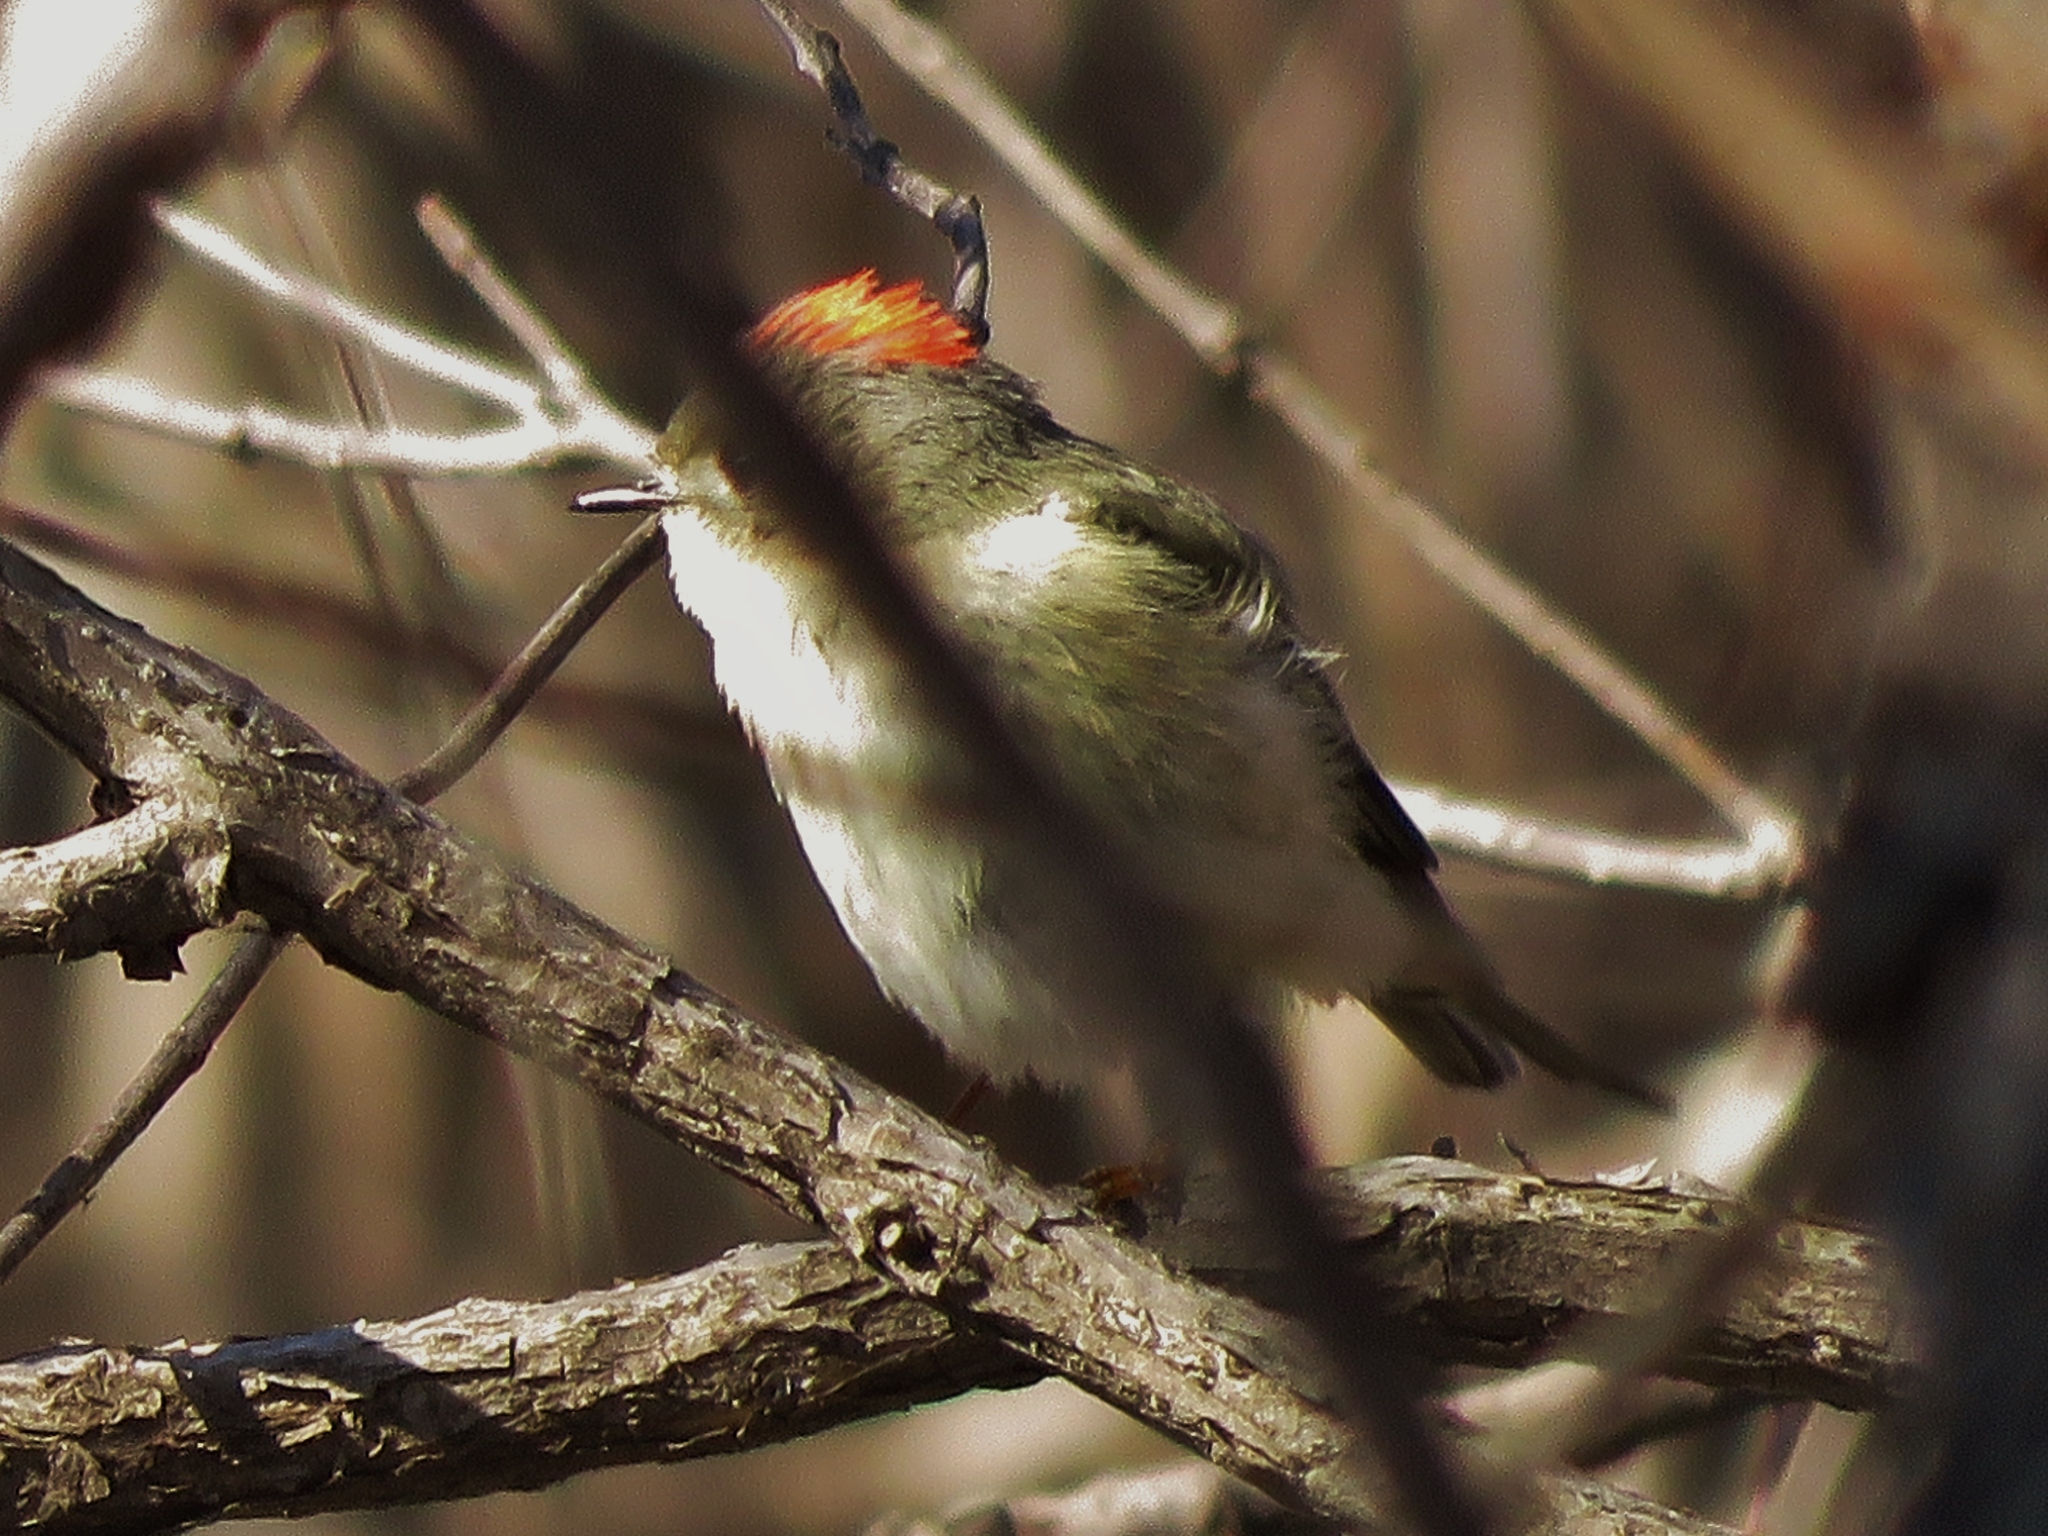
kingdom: Animalia
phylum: Chordata
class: Aves
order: Passeriformes
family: Regulidae
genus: Regulus
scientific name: Regulus calendula
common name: Ruby-crowned kinglet
